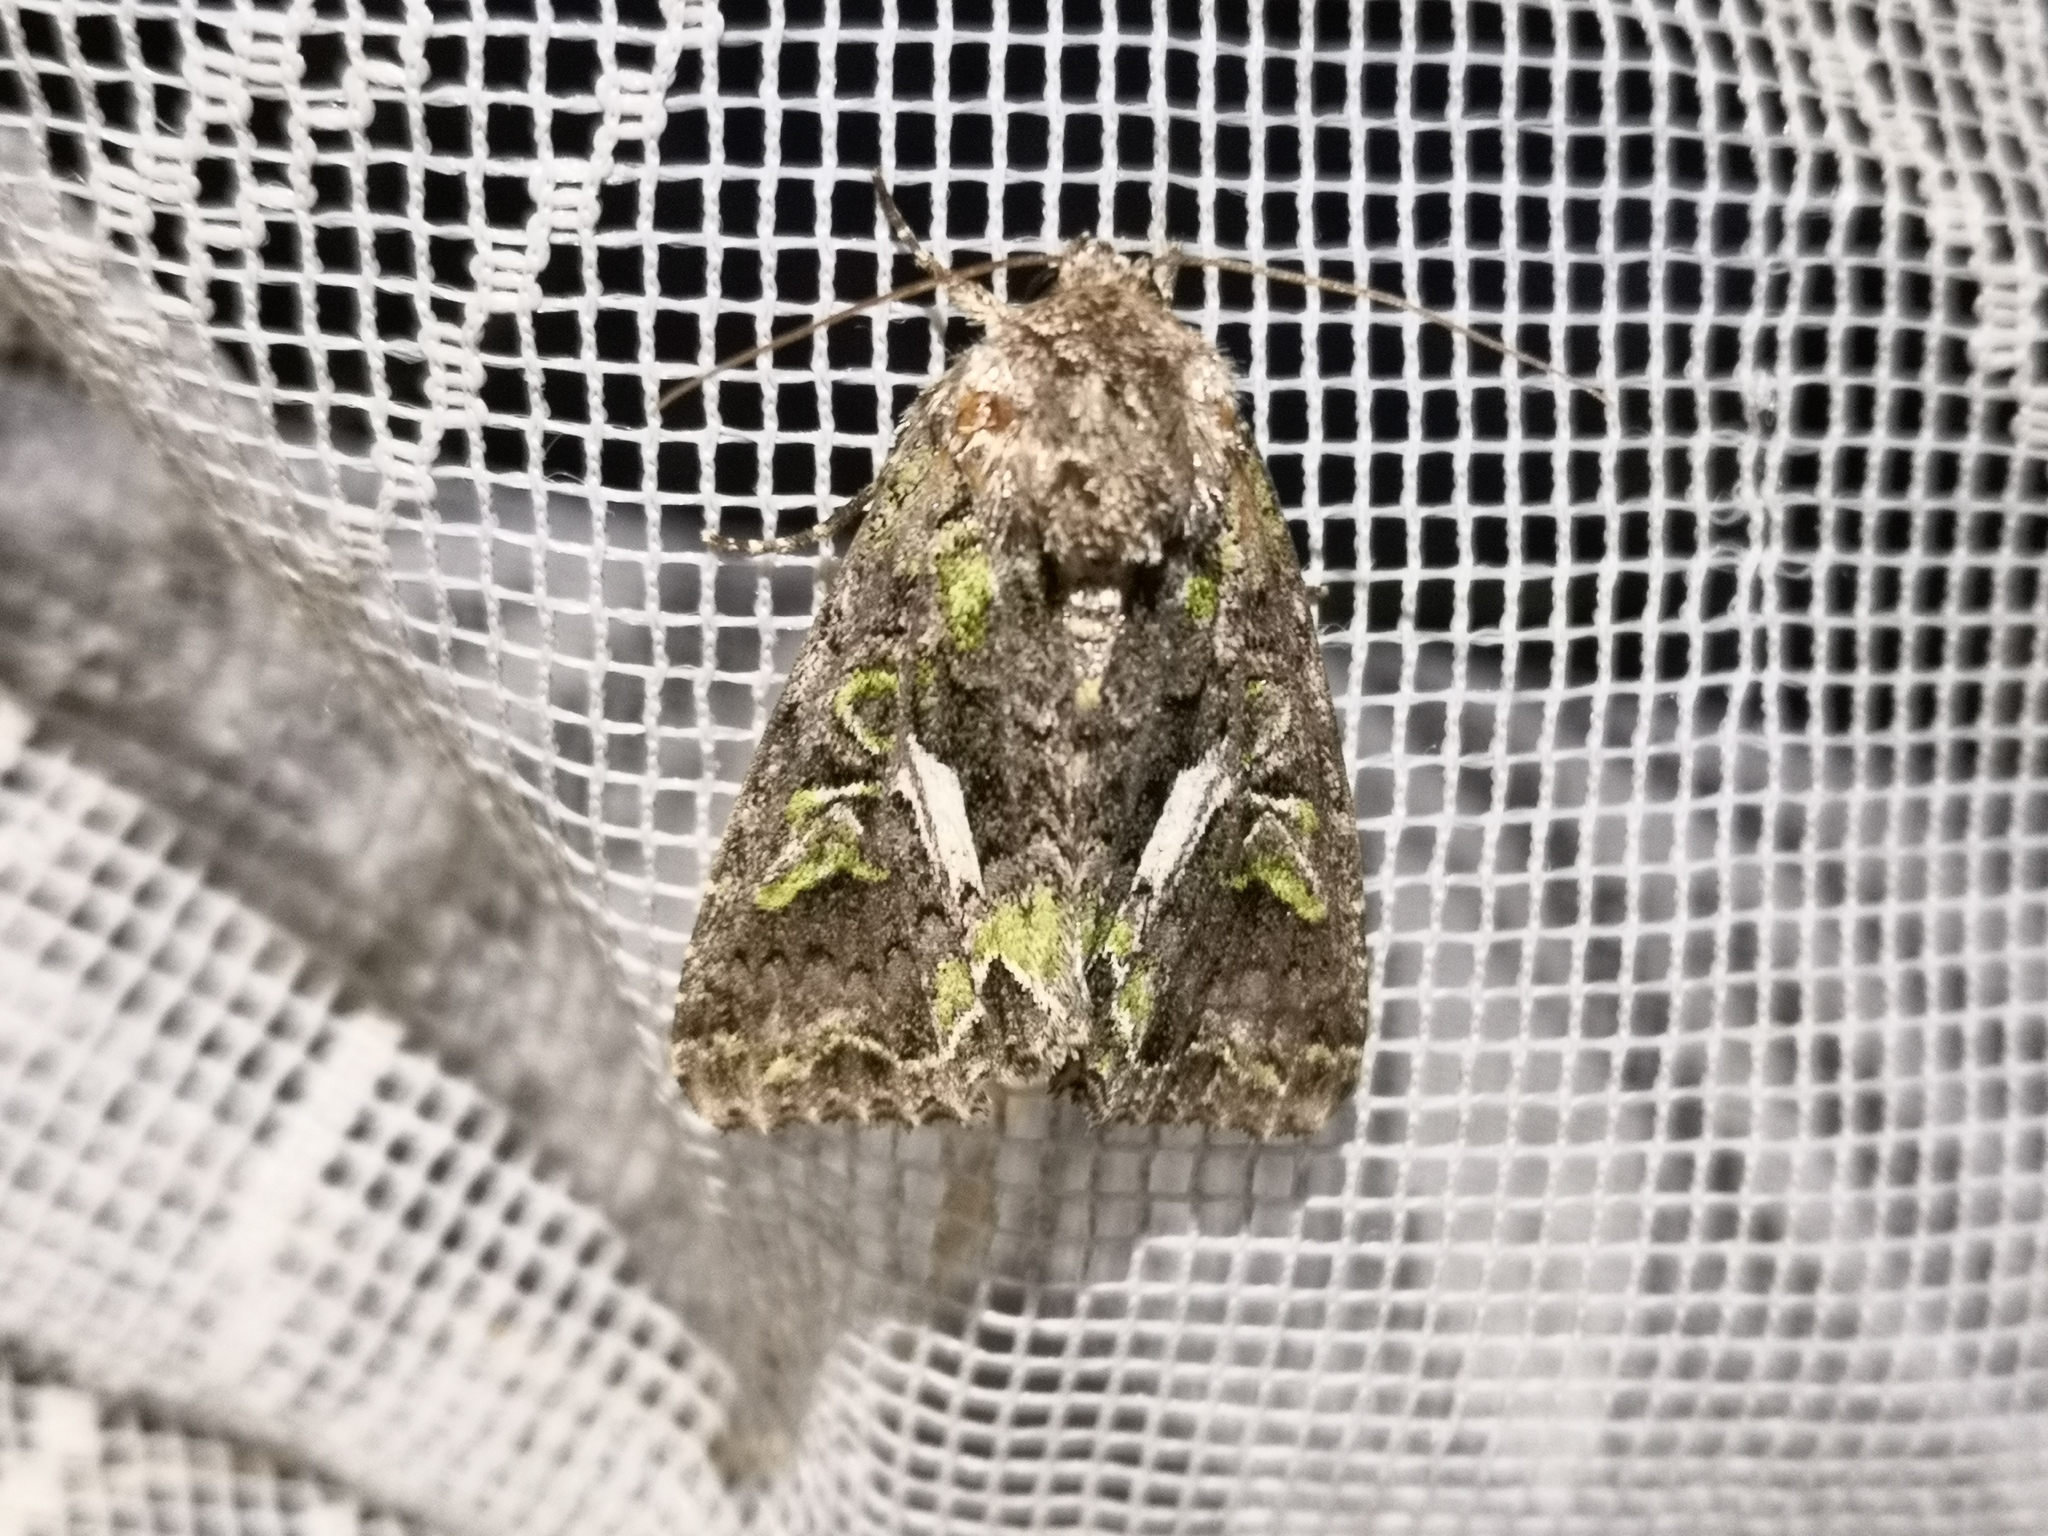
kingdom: Animalia
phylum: Arthropoda
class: Insecta
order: Lepidoptera
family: Noctuidae
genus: Trachea
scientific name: Trachea atriplicis
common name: Orache moth
